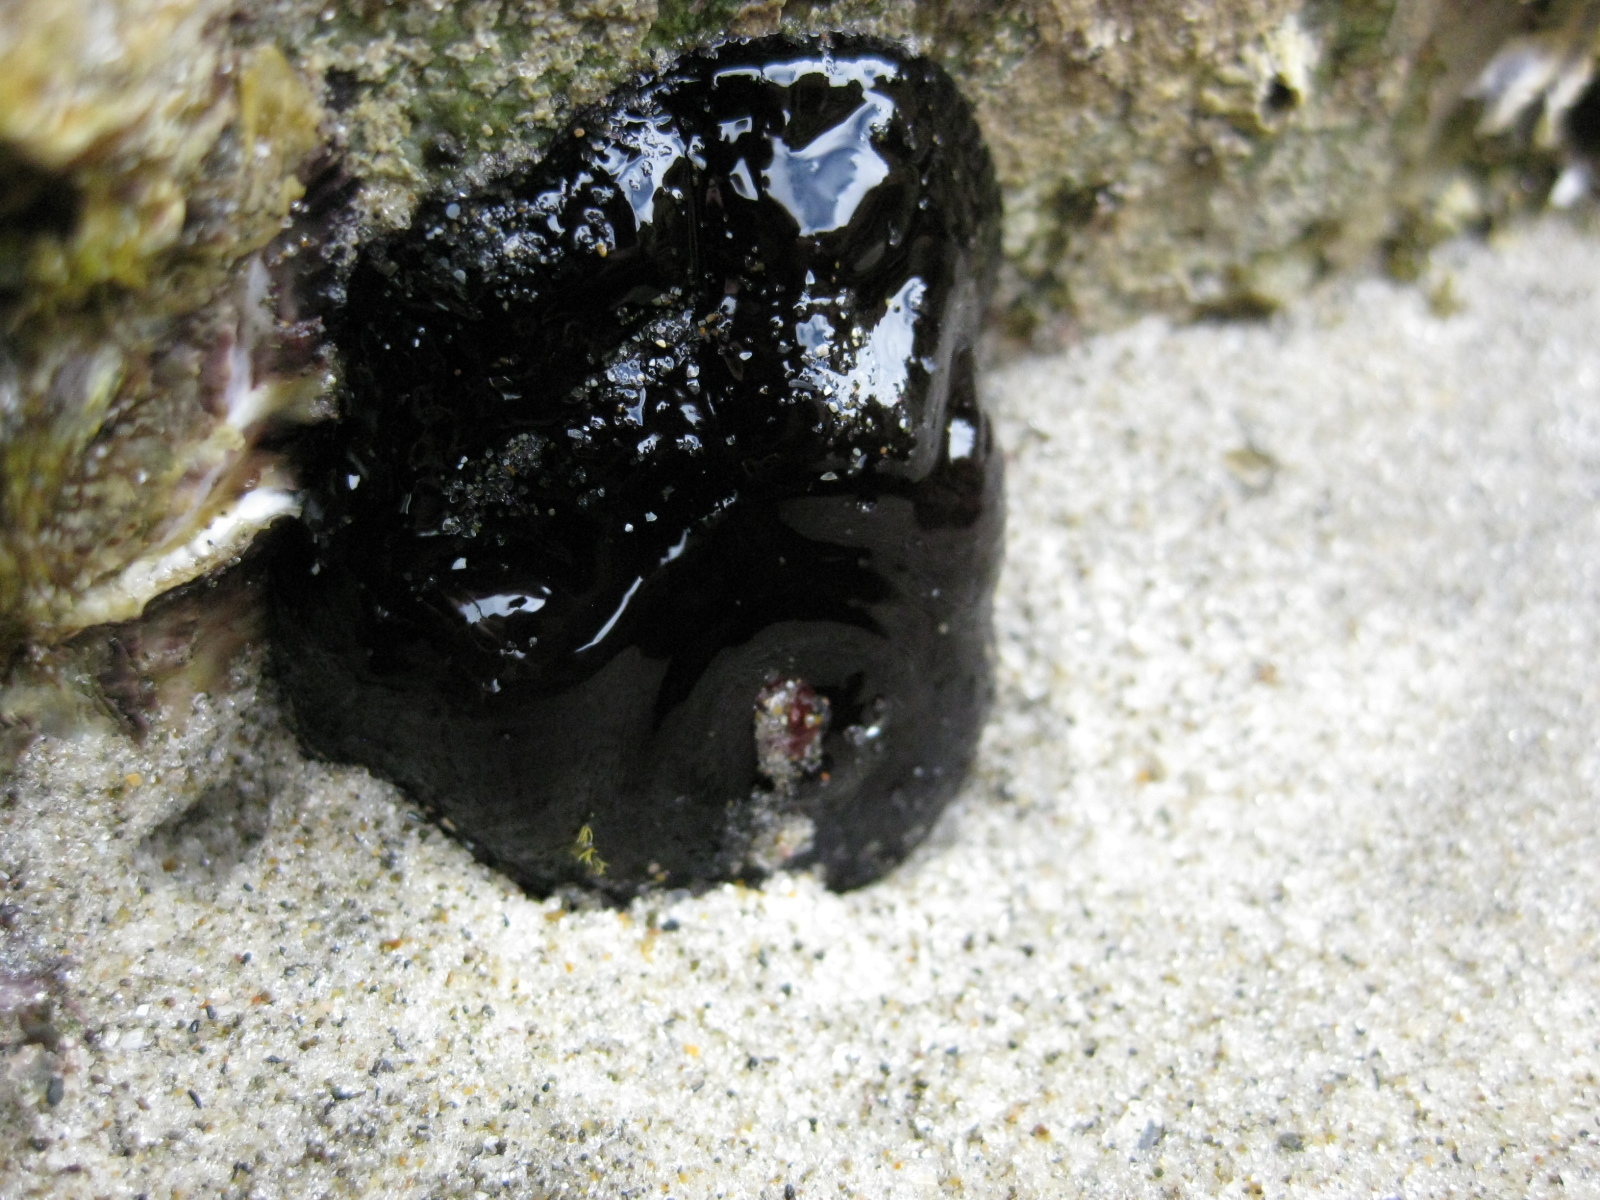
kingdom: Animalia
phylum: Cnidaria
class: Anthozoa
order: Actiniaria
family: Actiniidae
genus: Actinia
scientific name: Actinia tenebrosa
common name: Waratah anemone
